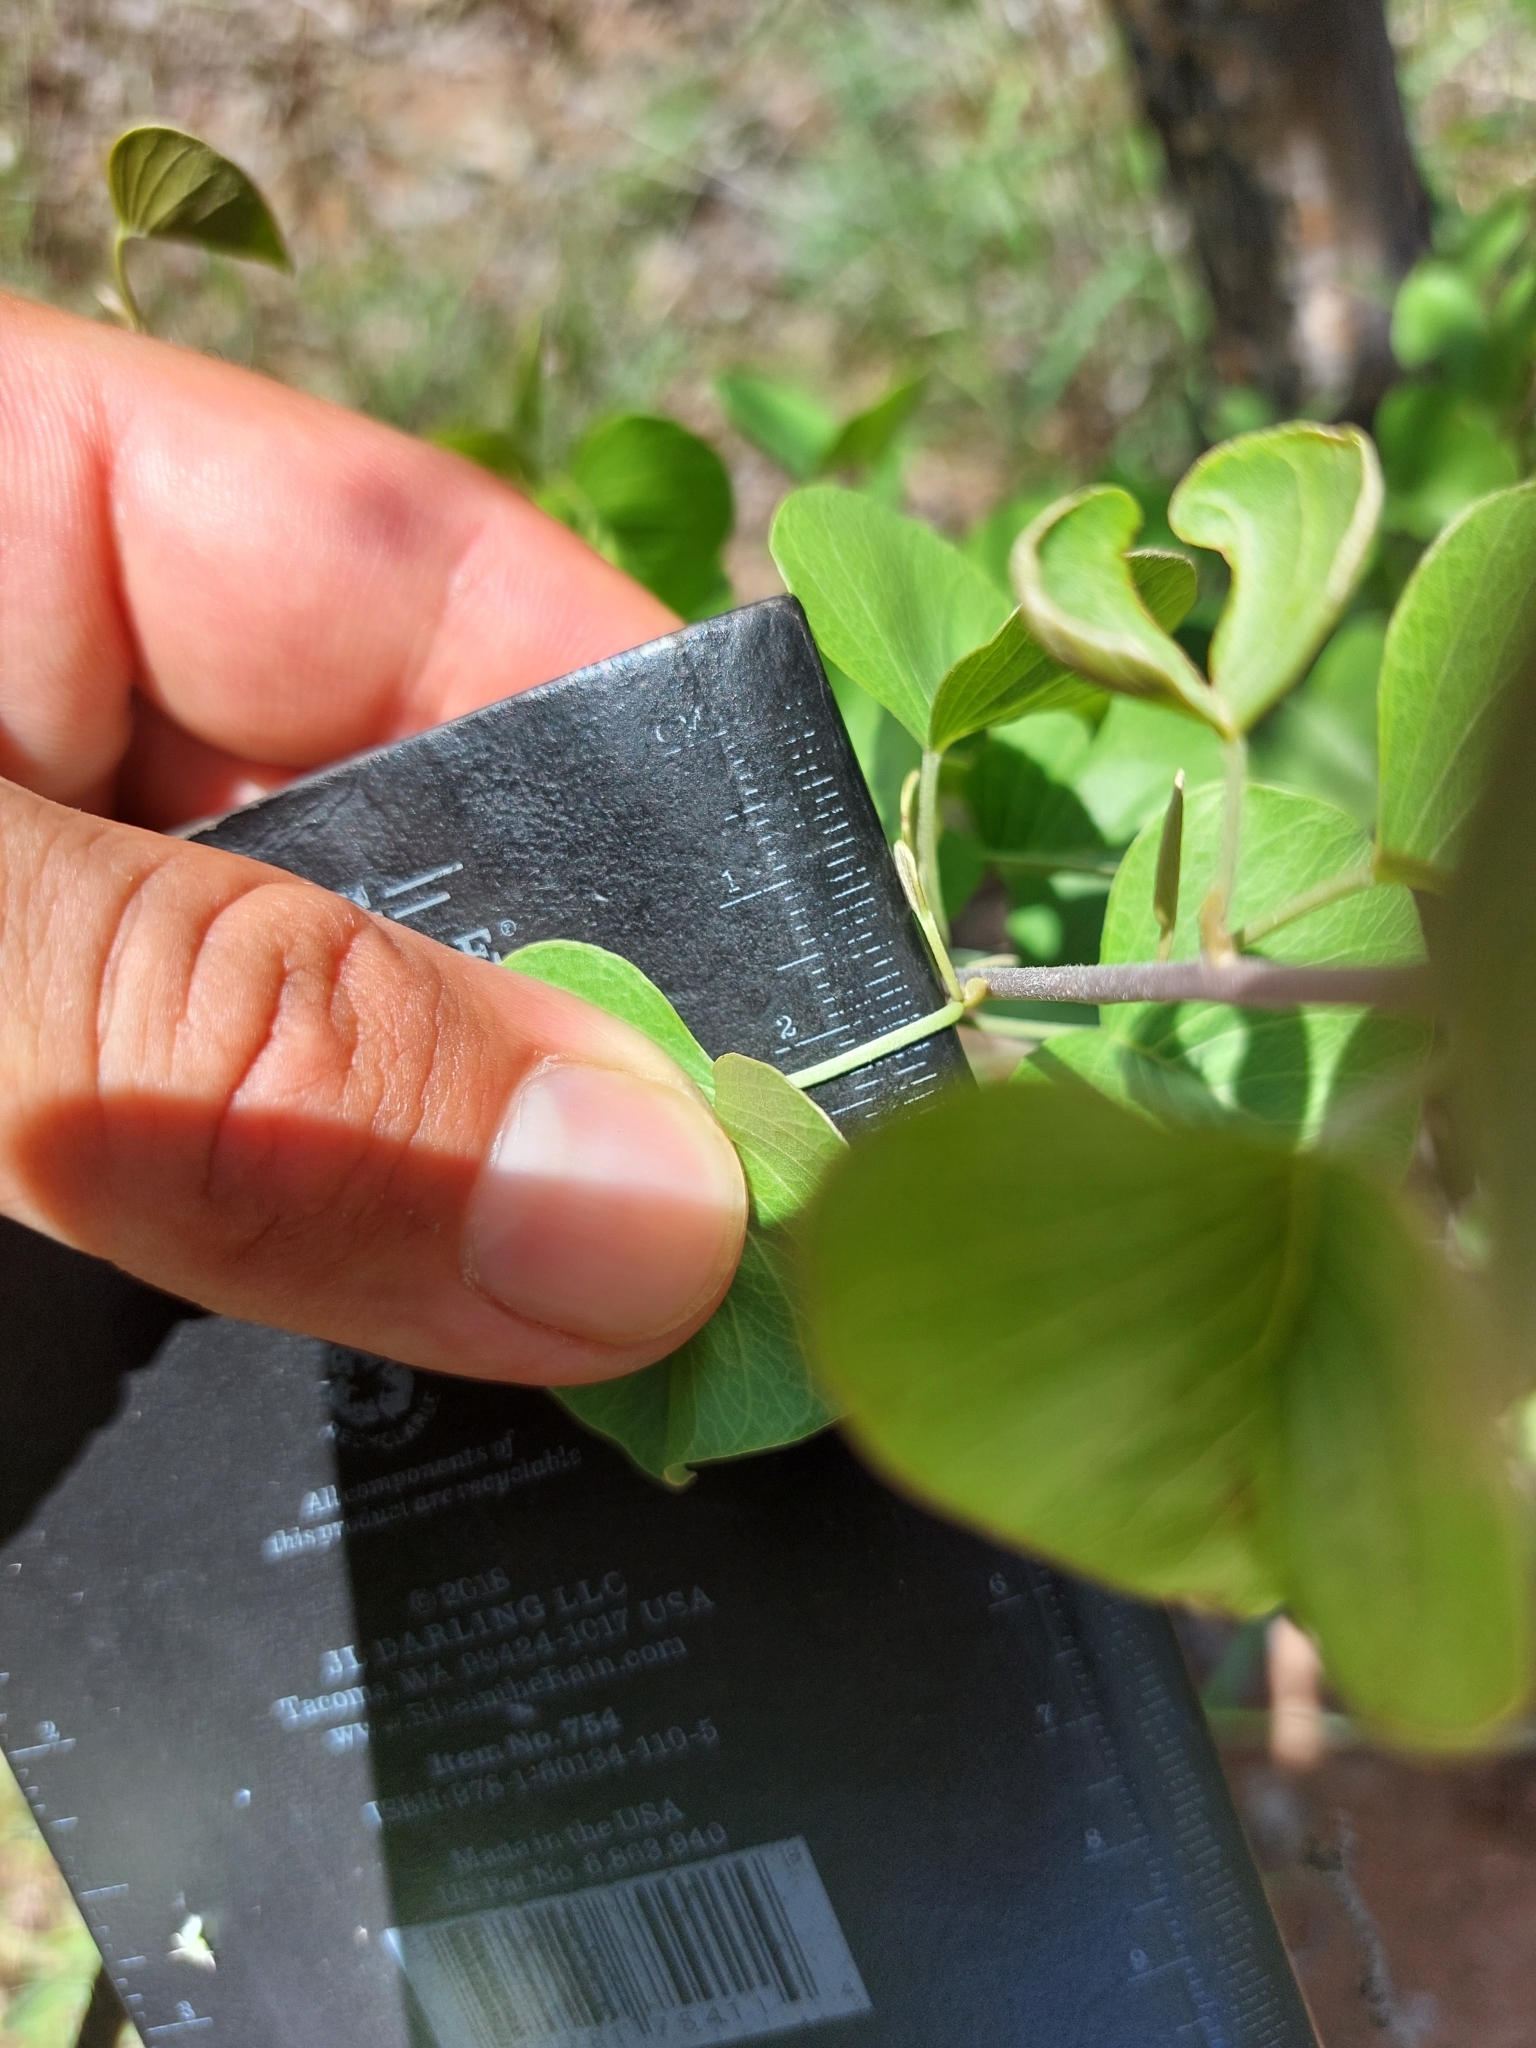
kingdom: Plantae
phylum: Tracheophyta
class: Magnoliopsida
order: Solanales
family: Convolvulaceae
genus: Ipomoea
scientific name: Ipomoea holubii
